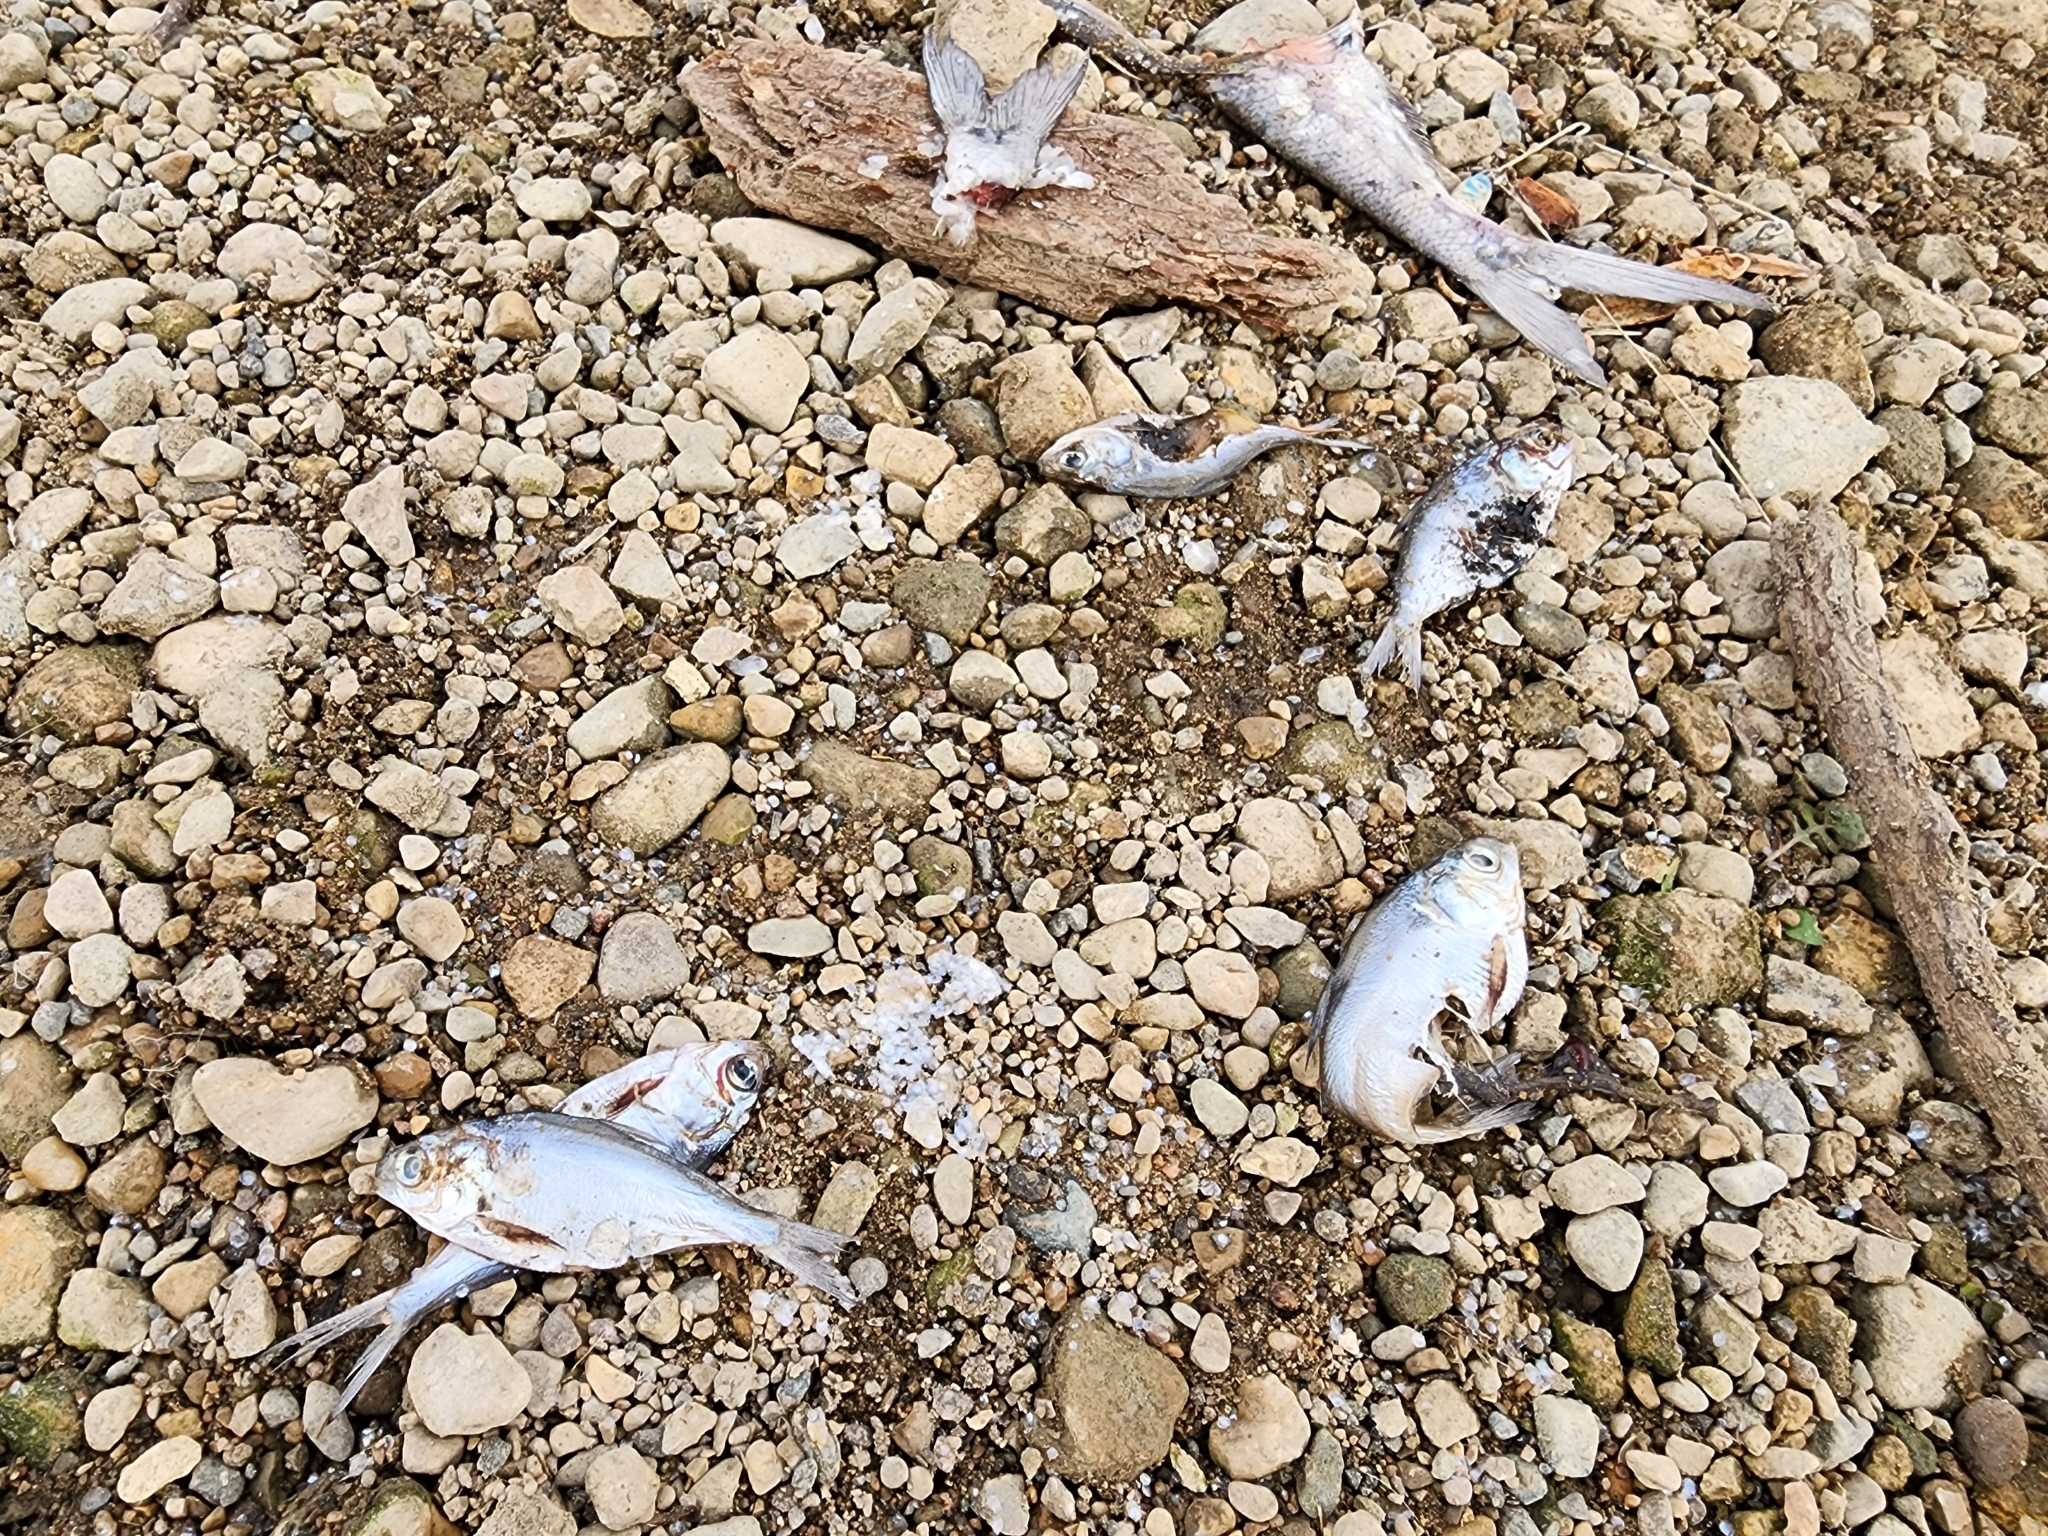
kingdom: Animalia
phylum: Chordata
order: Clupeiformes
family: Clupeidae
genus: Dorosoma
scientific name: Dorosoma cepedianum
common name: Gizzard shad
